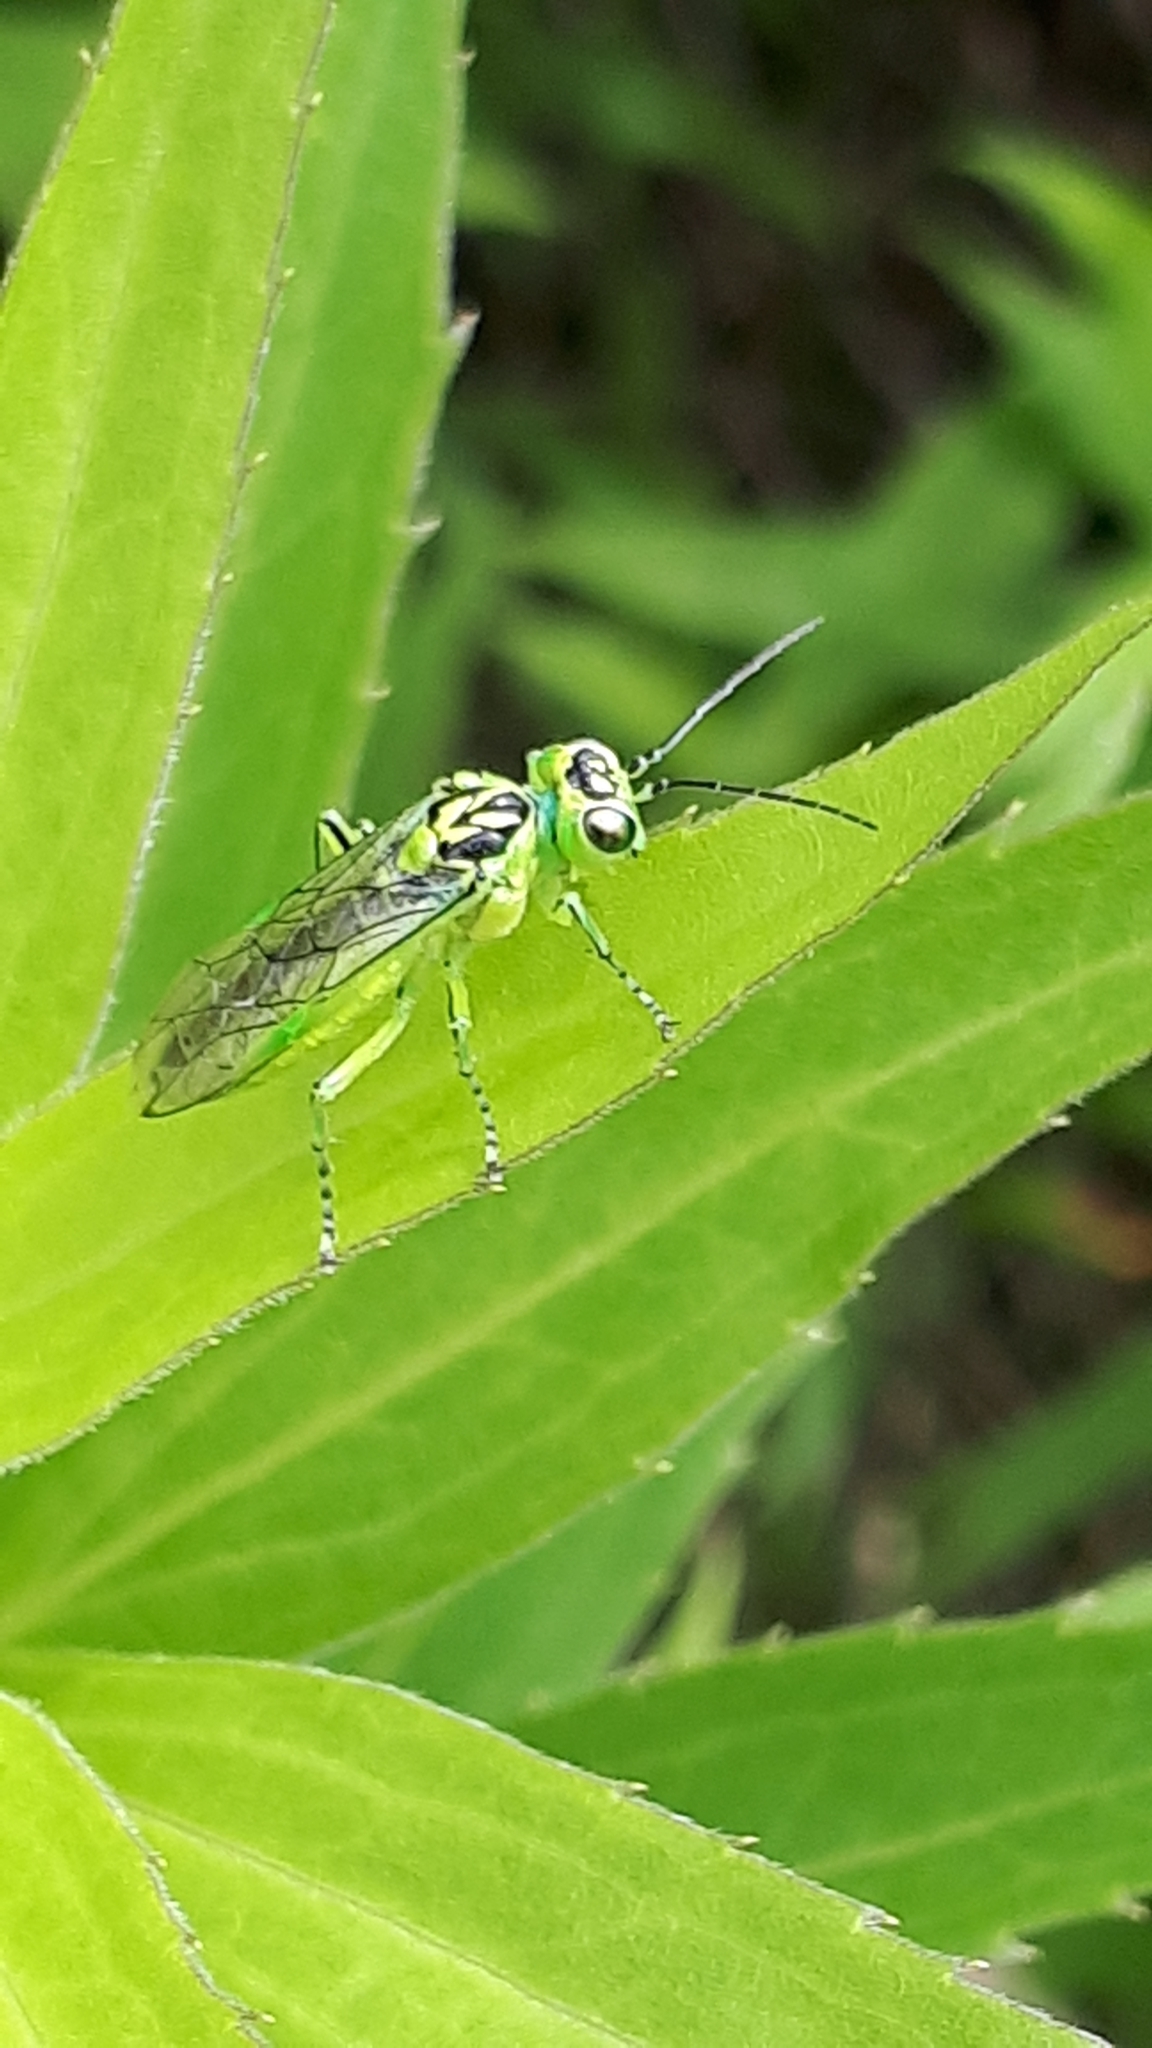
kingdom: Animalia
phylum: Arthropoda
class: Insecta
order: Hymenoptera
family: Tenthredinidae
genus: Rhogogaster
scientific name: Rhogogaster chlorosoma
